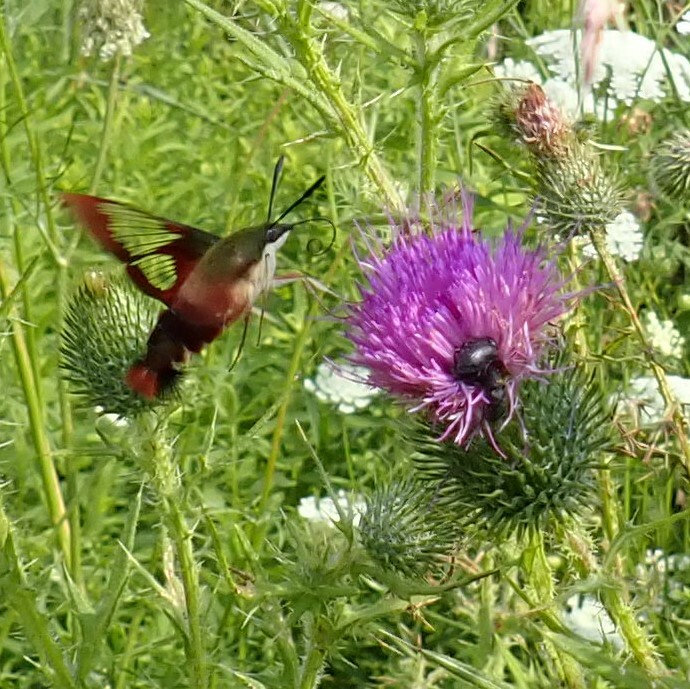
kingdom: Animalia
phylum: Arthropoda
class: Insecta
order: Lepidoptera
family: Sphingidae
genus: Hemaris
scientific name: Hemaris thysbe
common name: Common clear-wing
